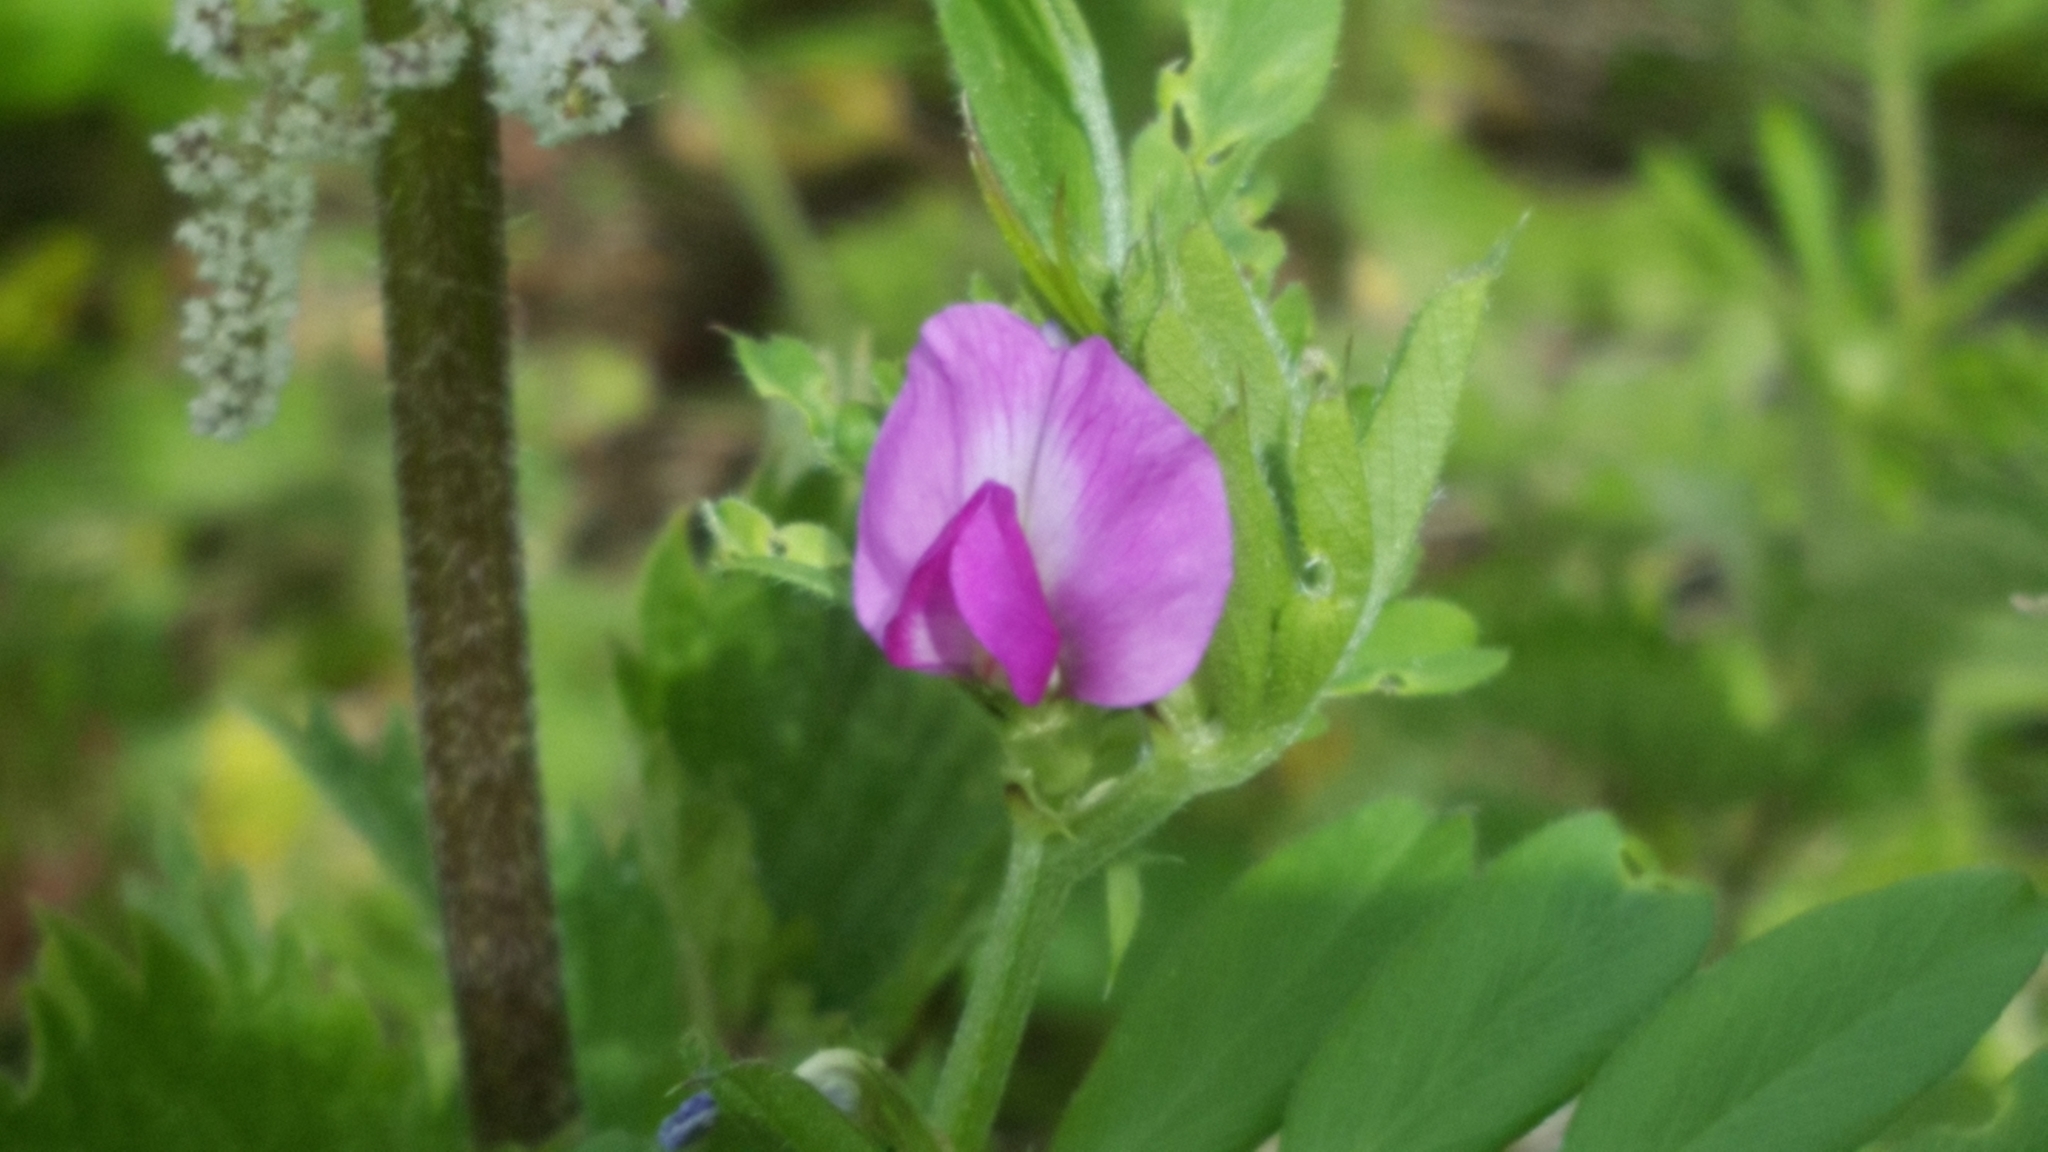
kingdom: Plantae
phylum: Tracheophyta
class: Magnoliopsida
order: Fabales
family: Fabaceae
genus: Vicia
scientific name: Vicia sativa
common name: Garden vetch
